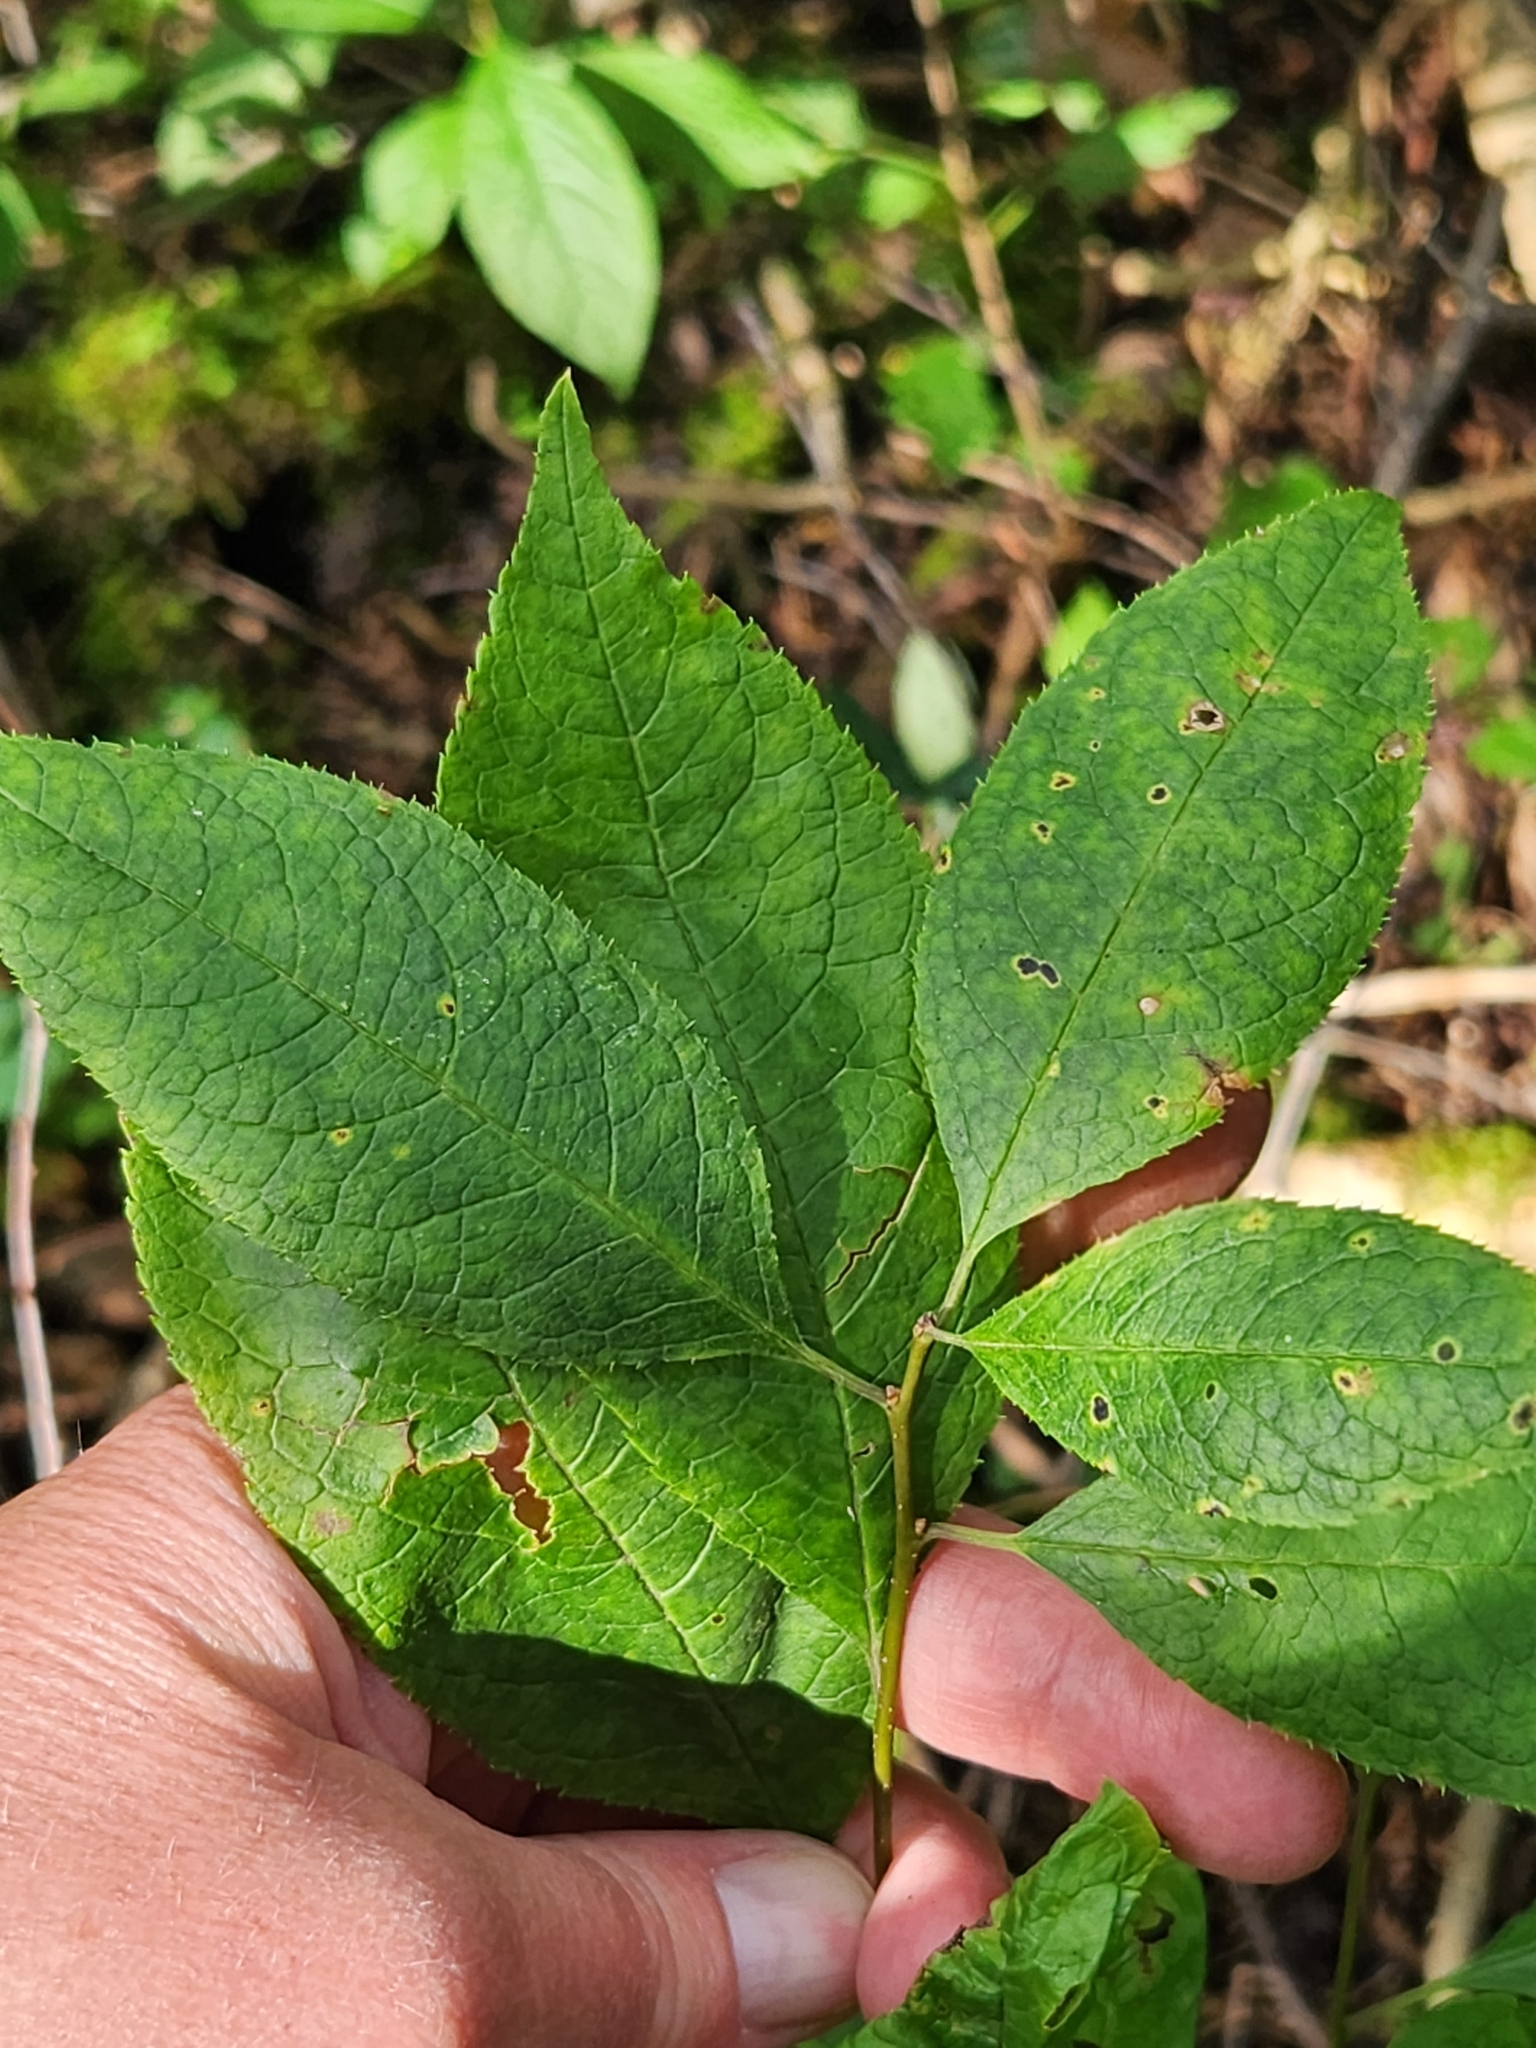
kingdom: Plantae
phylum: Tracheophyta
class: Magnoliopsida
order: Aquifoliales
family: Aquifoliaceae
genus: Ilex
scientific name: Ilex verticillata
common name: Virginia winterberry
